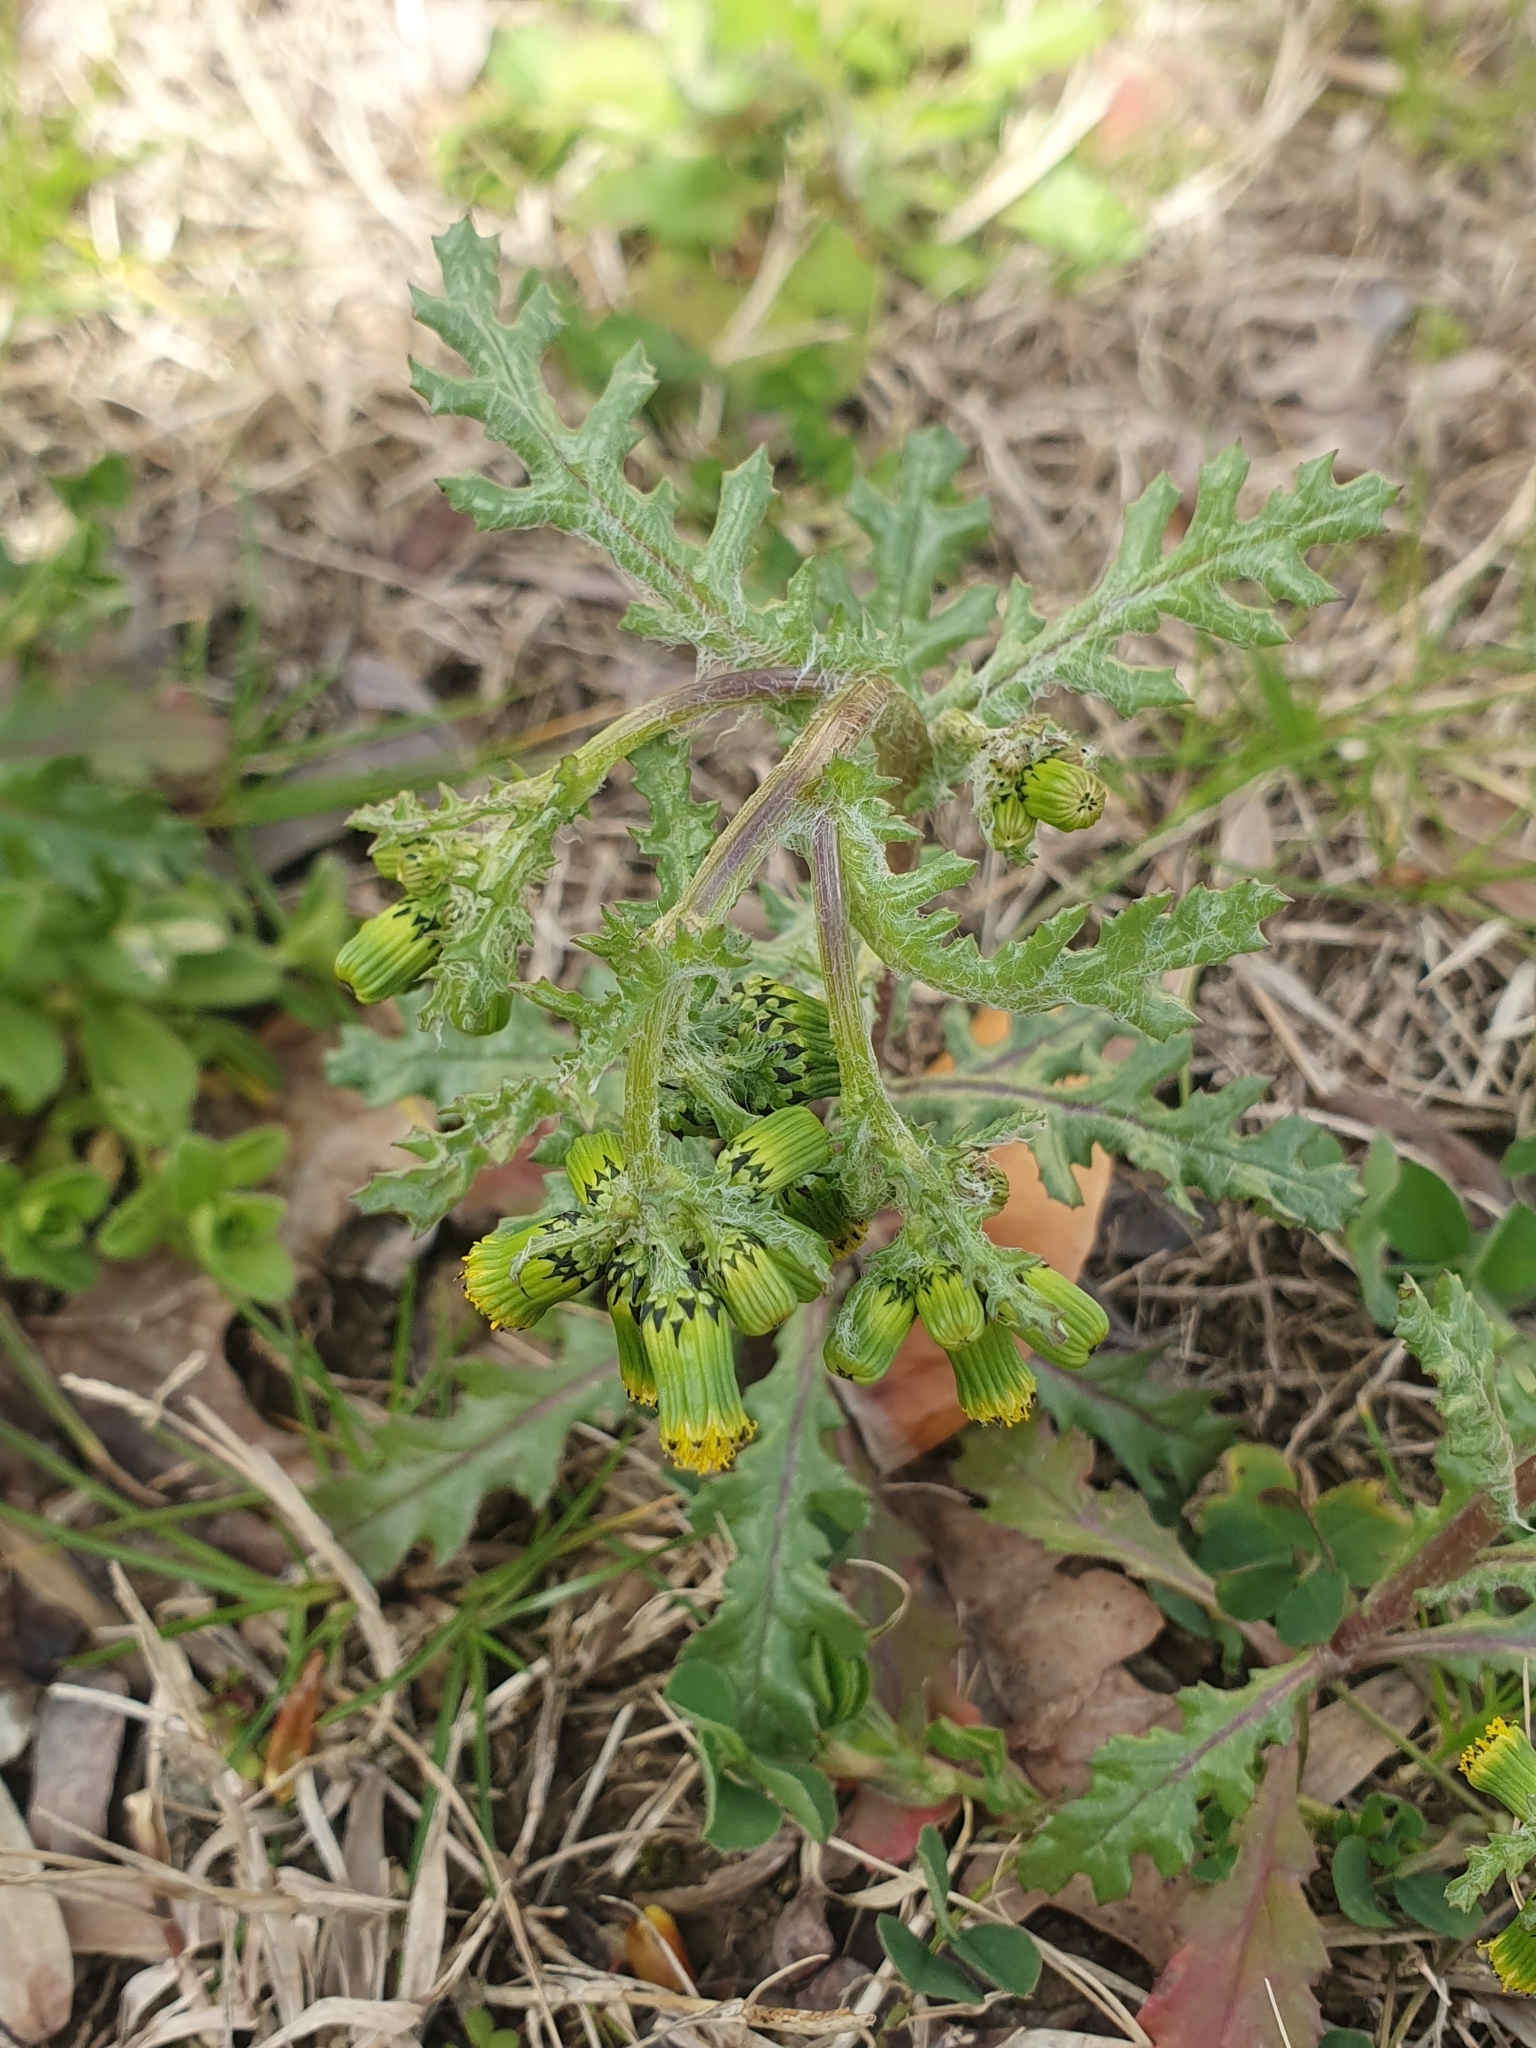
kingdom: Plantae
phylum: Tracheophyta
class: Magnoliopsida
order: Asterales
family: Asteraceae
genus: Senecio
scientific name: Senecio vulgaris
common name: Old-man-in-the-spring
